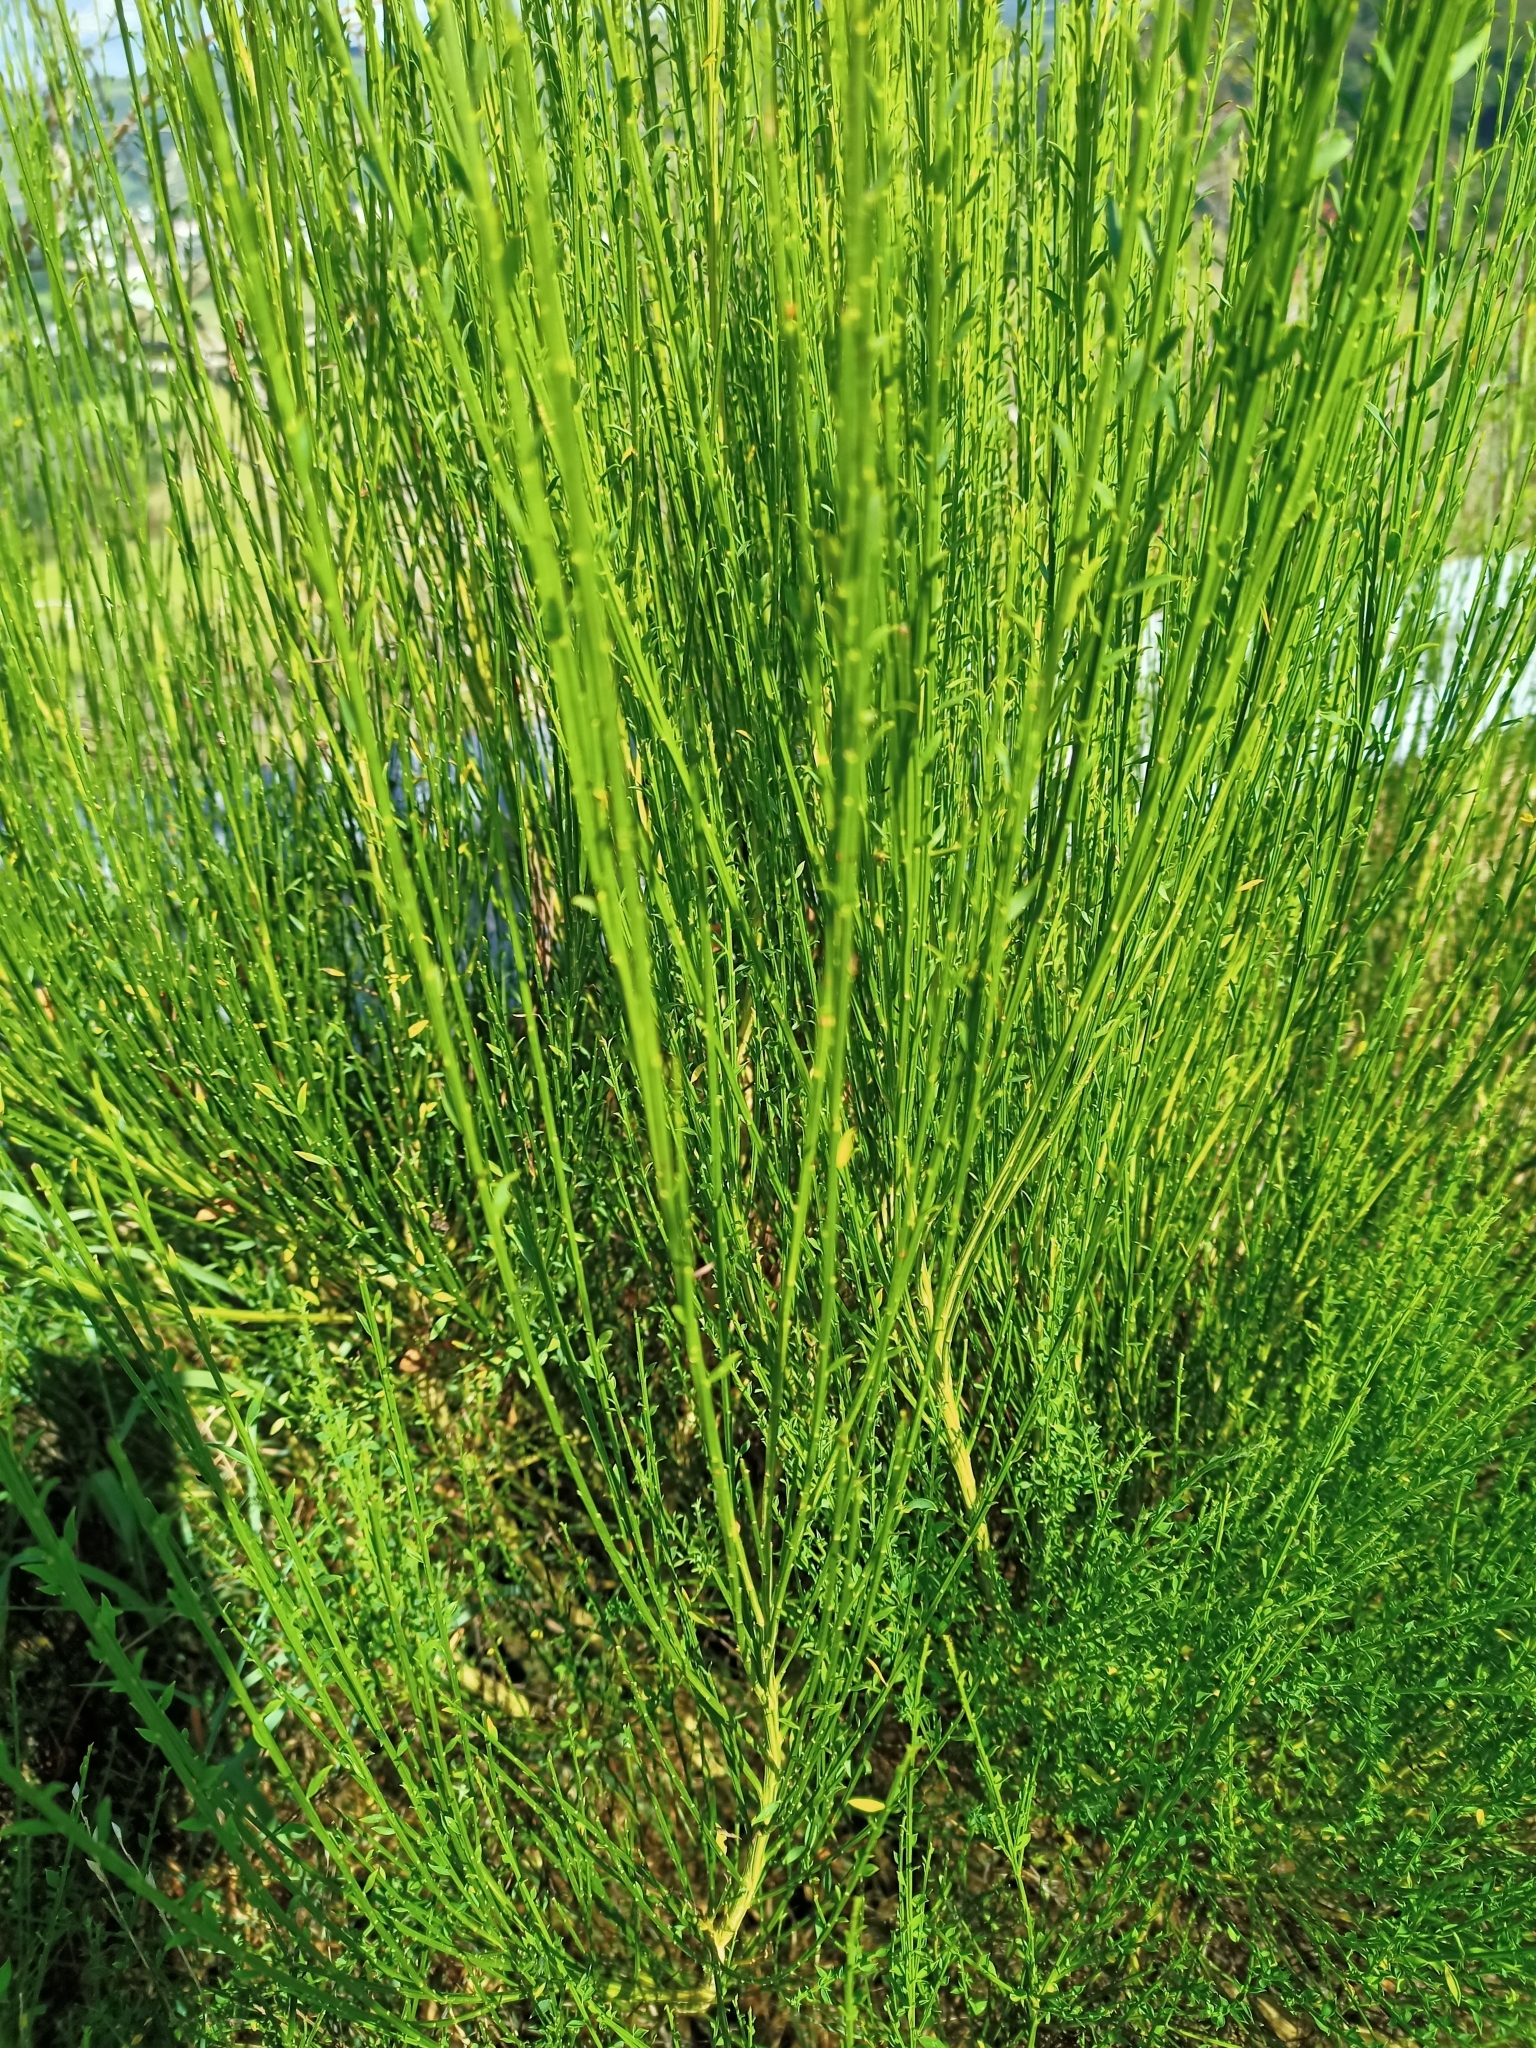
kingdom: Plantae
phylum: Tracheophyta
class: Magnoliopsida
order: Fabales
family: Fabaceae
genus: Cytisus
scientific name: Cytisus scoparius
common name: Scotch broom
